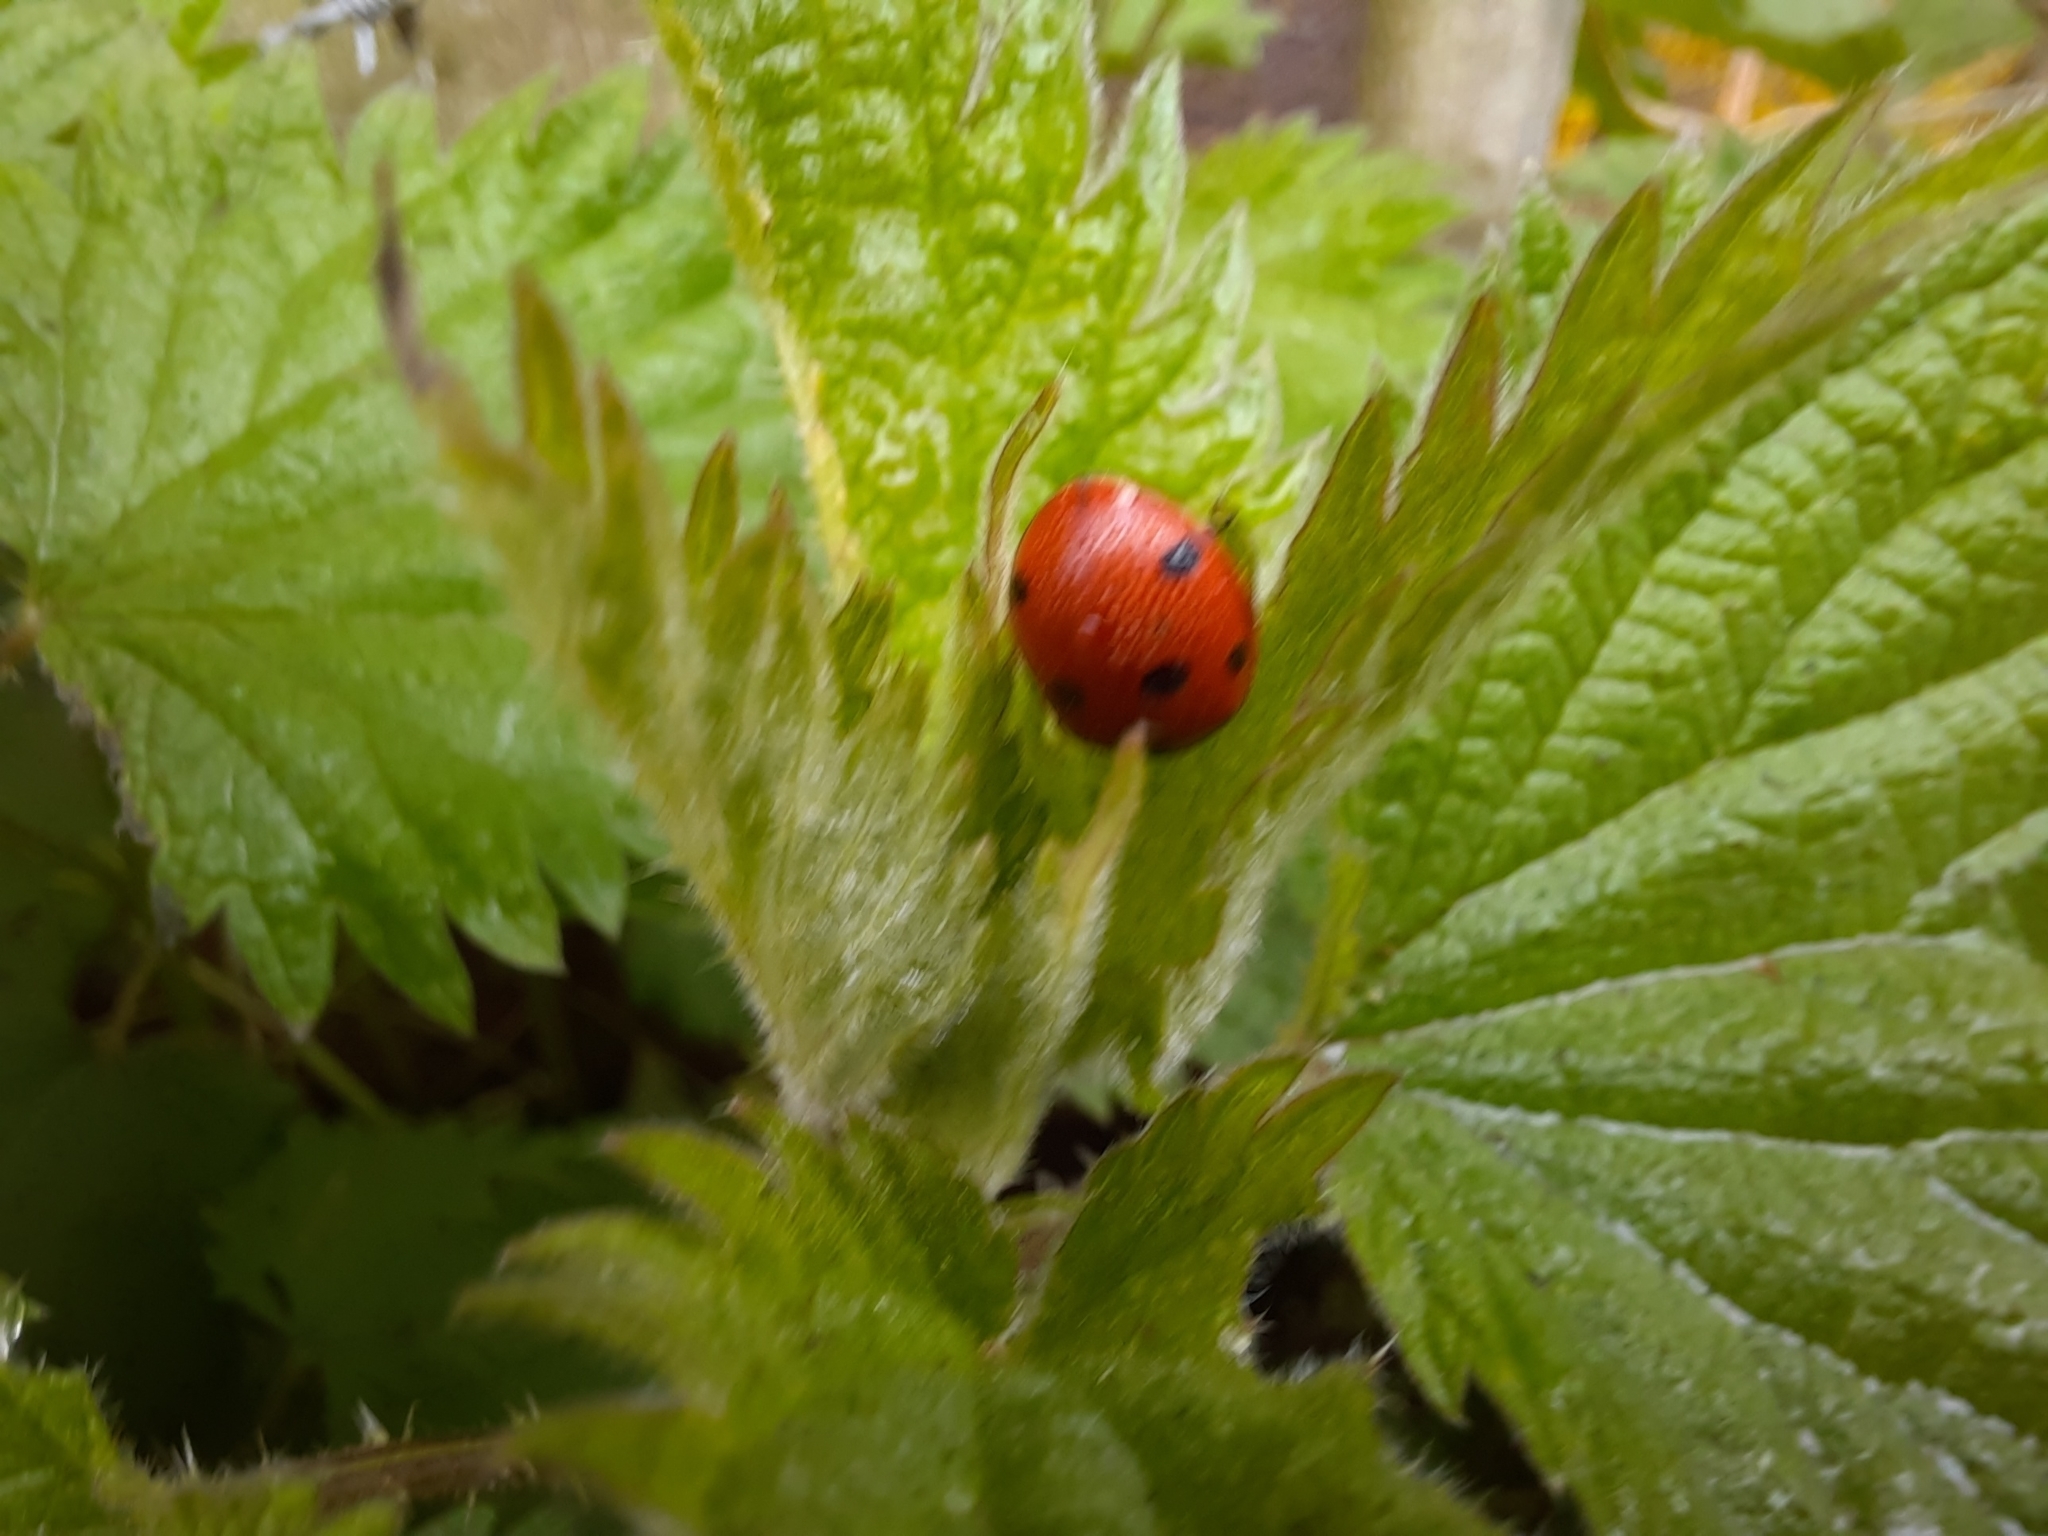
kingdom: Animalia
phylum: Arthropoda
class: Insecta
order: Coleoptera
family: Coccinellidae
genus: Coccinella
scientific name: Coccinella septempunctata
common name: Sevenspotted lady beetle
